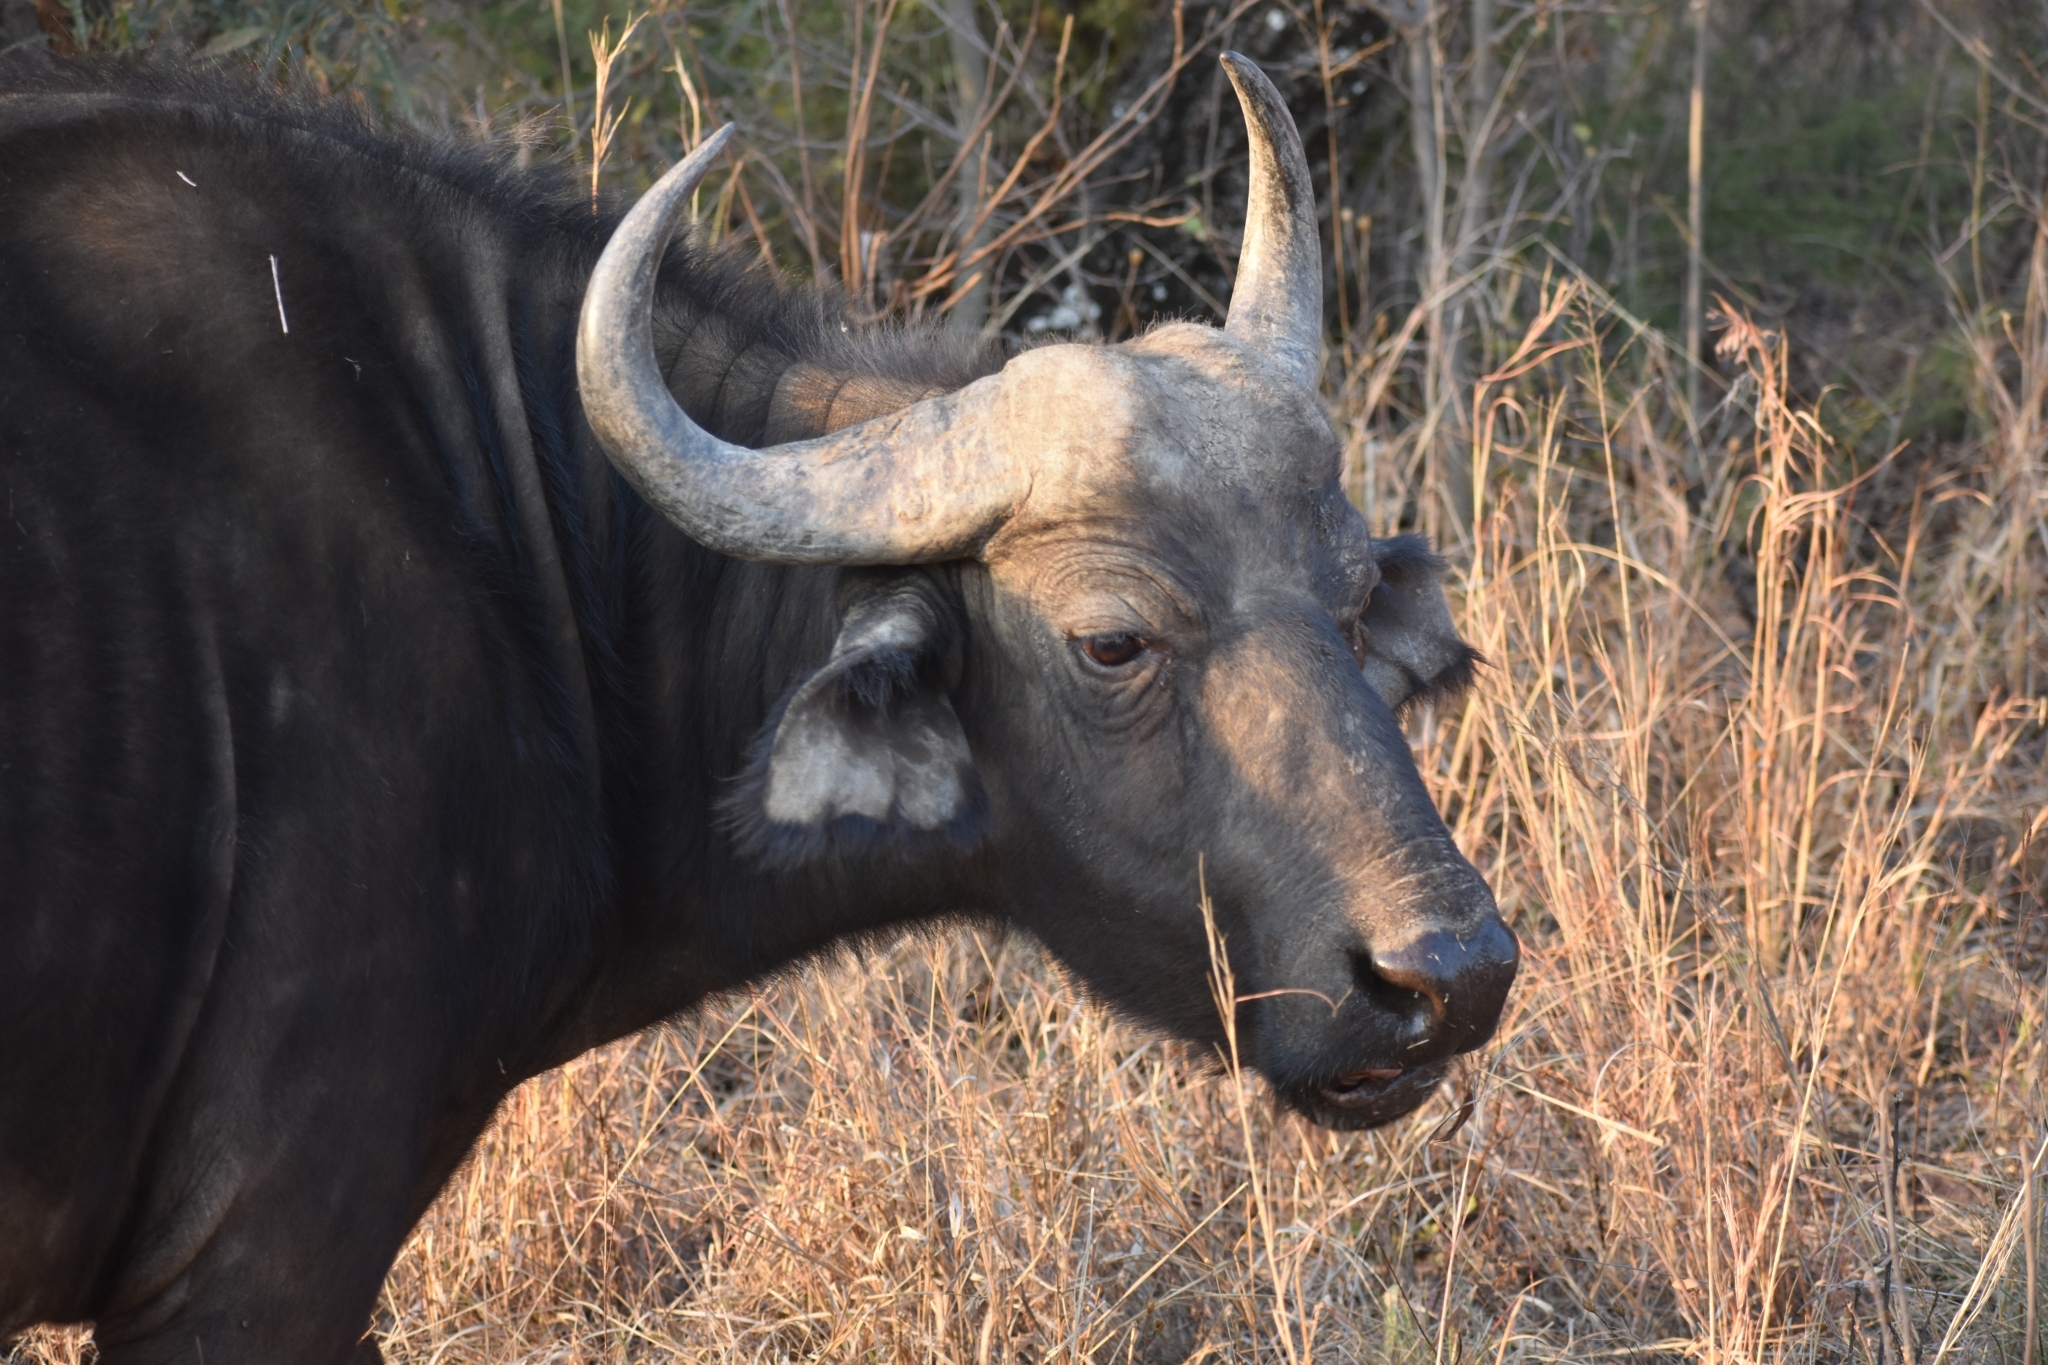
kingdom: Animalia
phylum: Chordata
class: Mammalia
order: Artiodactyla
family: Bovidae
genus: Syncerus
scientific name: Syncerus caffer
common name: African buffalo
